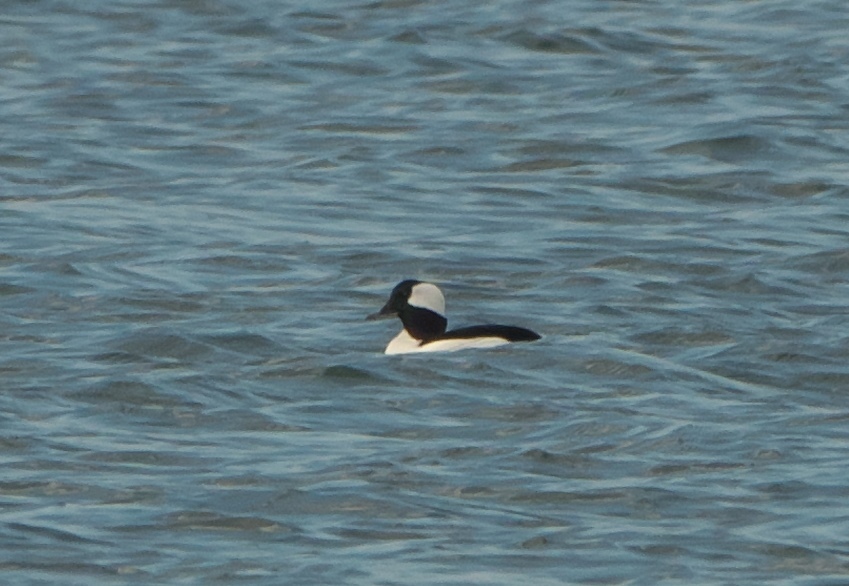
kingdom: Animalia
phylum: Chordata
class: Aves
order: Anseriformes
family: Anatidae
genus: Bucephala
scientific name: Bucephala albeola
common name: Bufflehead
